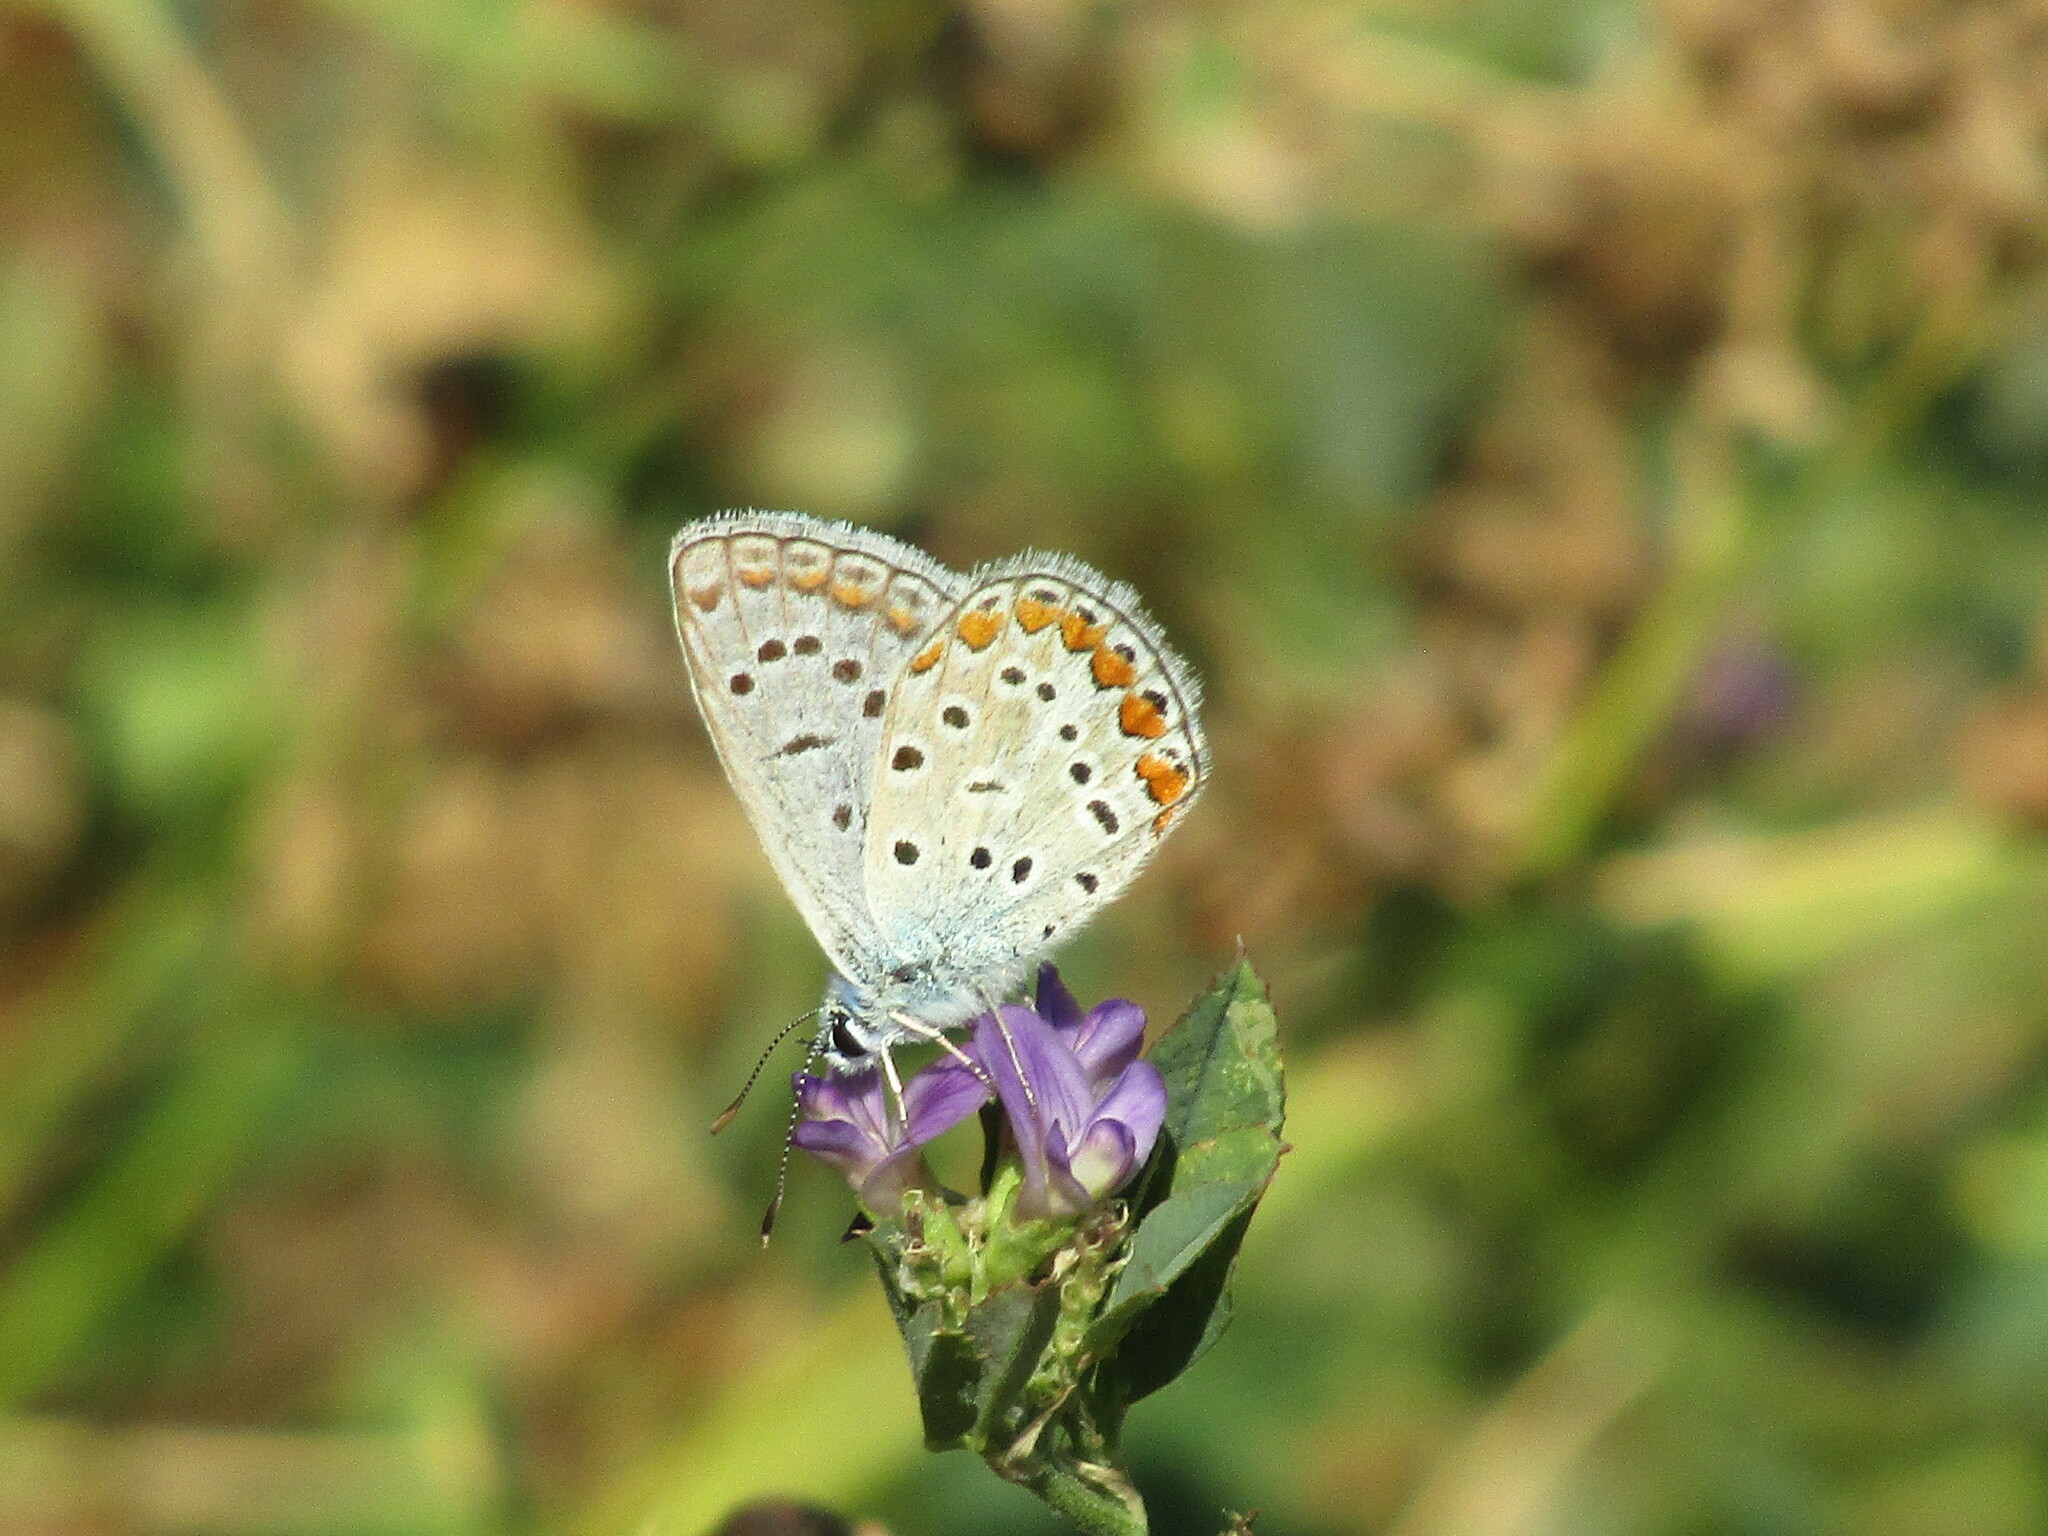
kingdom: Animalia
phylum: Arthropoda
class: Insecta
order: Lepidoptera
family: Lycaenidae
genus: Polyommatus
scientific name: Polyommatus icarus
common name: Common blue
